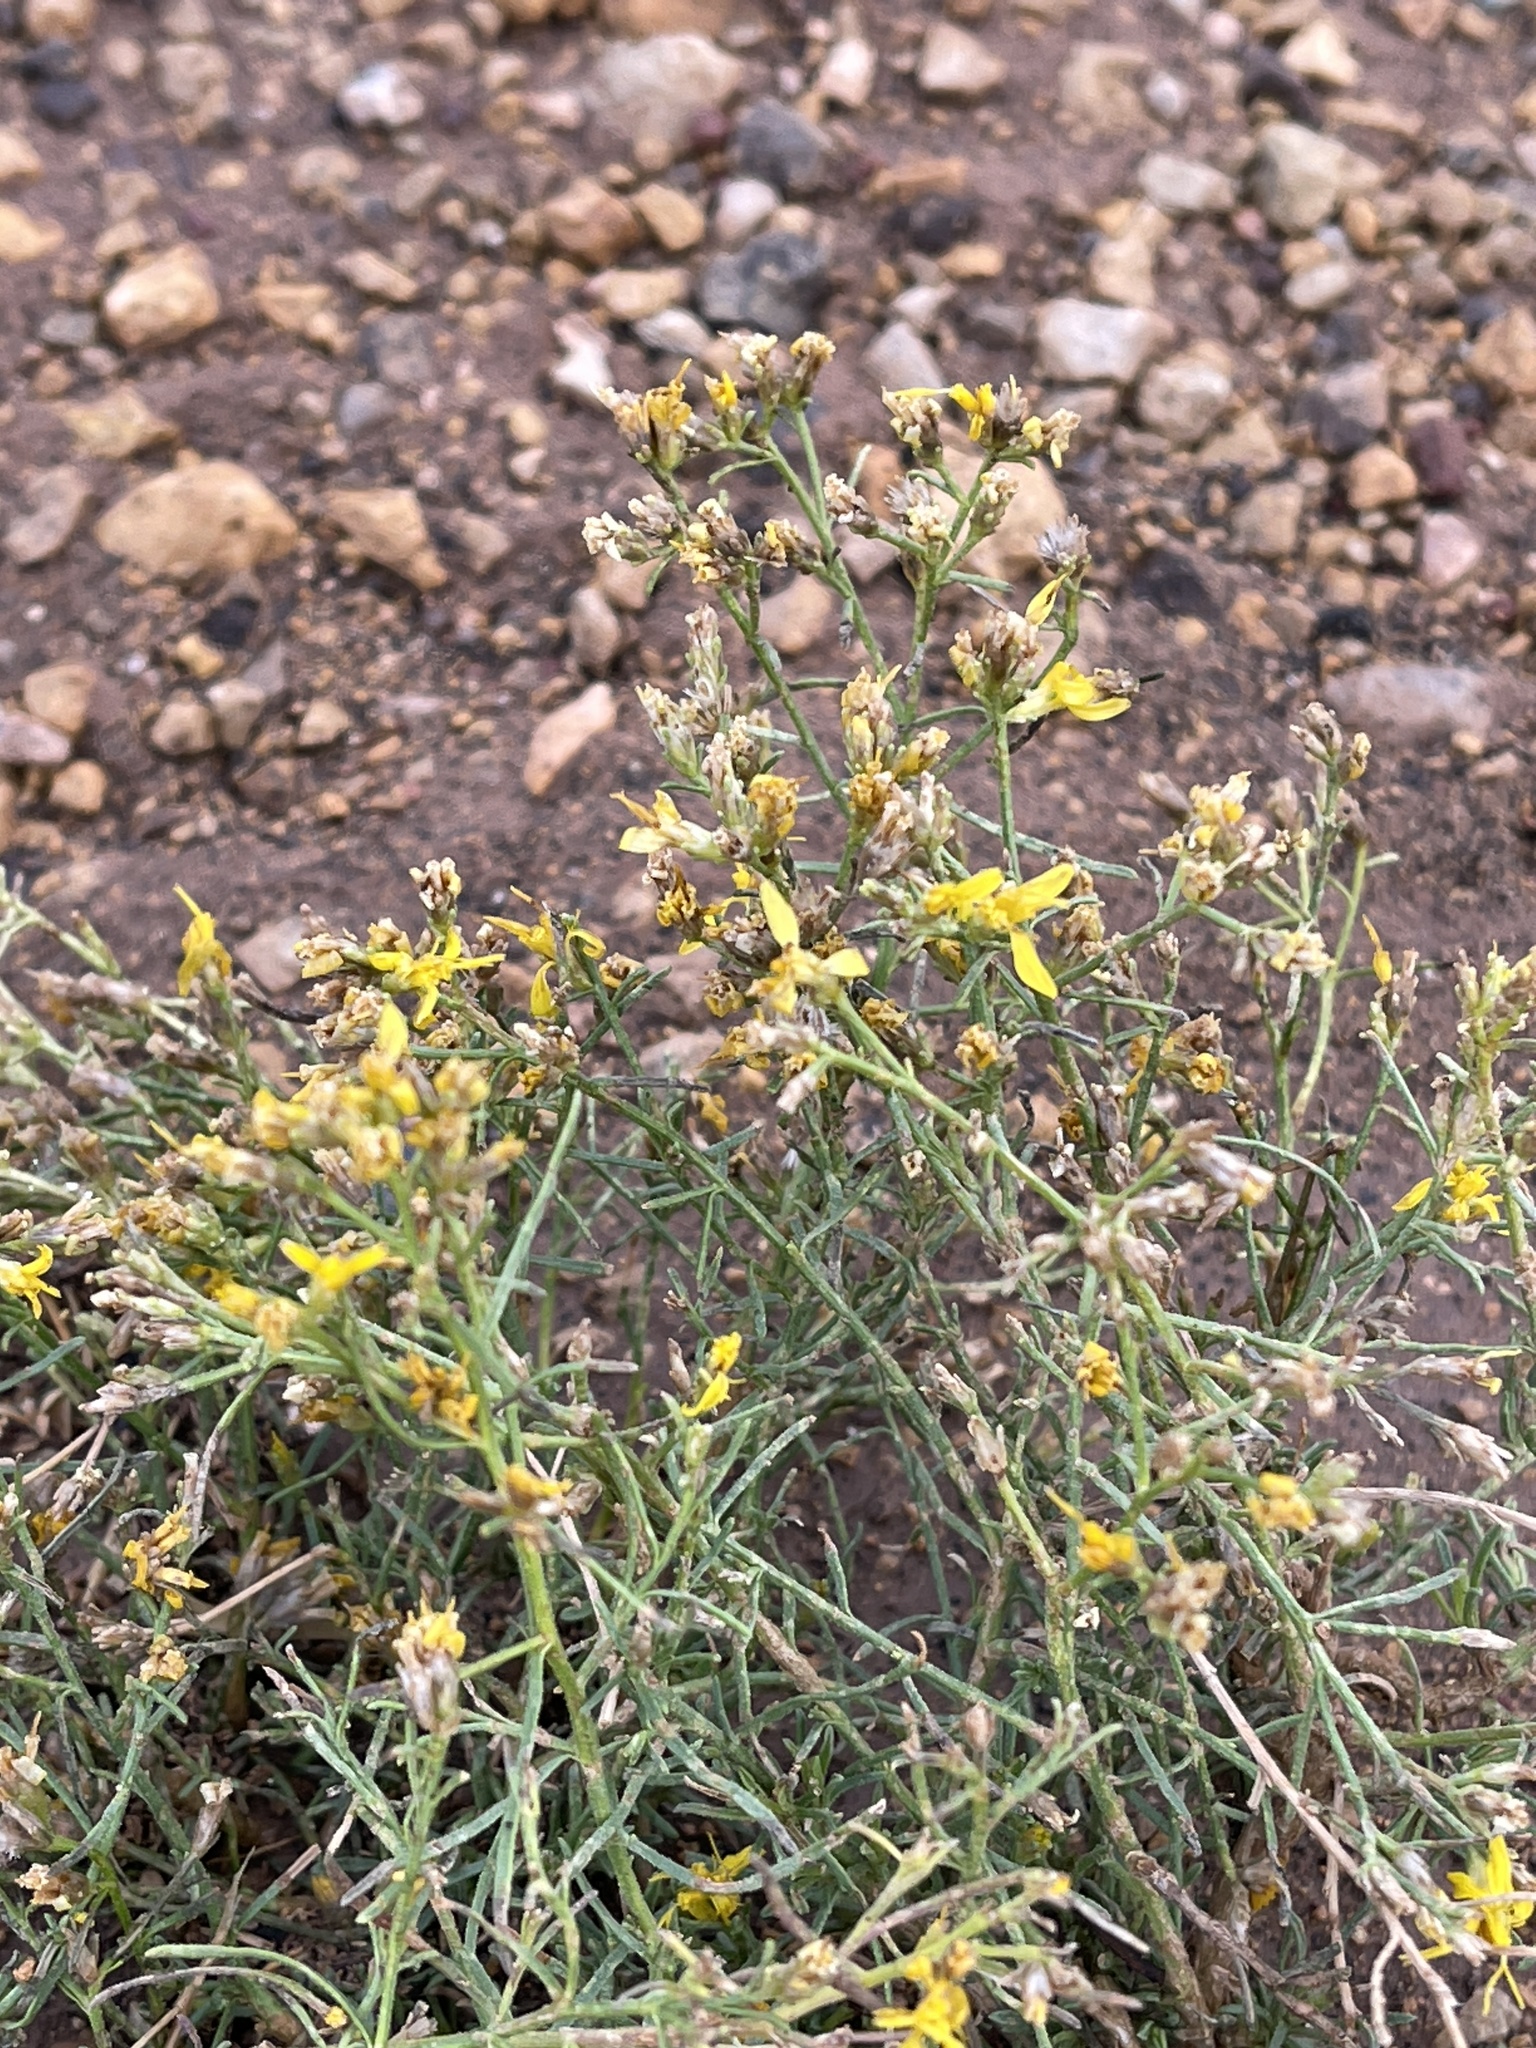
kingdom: Plantae
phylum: Tracheophyta
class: Magnoliopsida
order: Asterales
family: Asteraceae
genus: Gutierrezia
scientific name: Gutierrezia sarothrae
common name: Broom snakeweed
